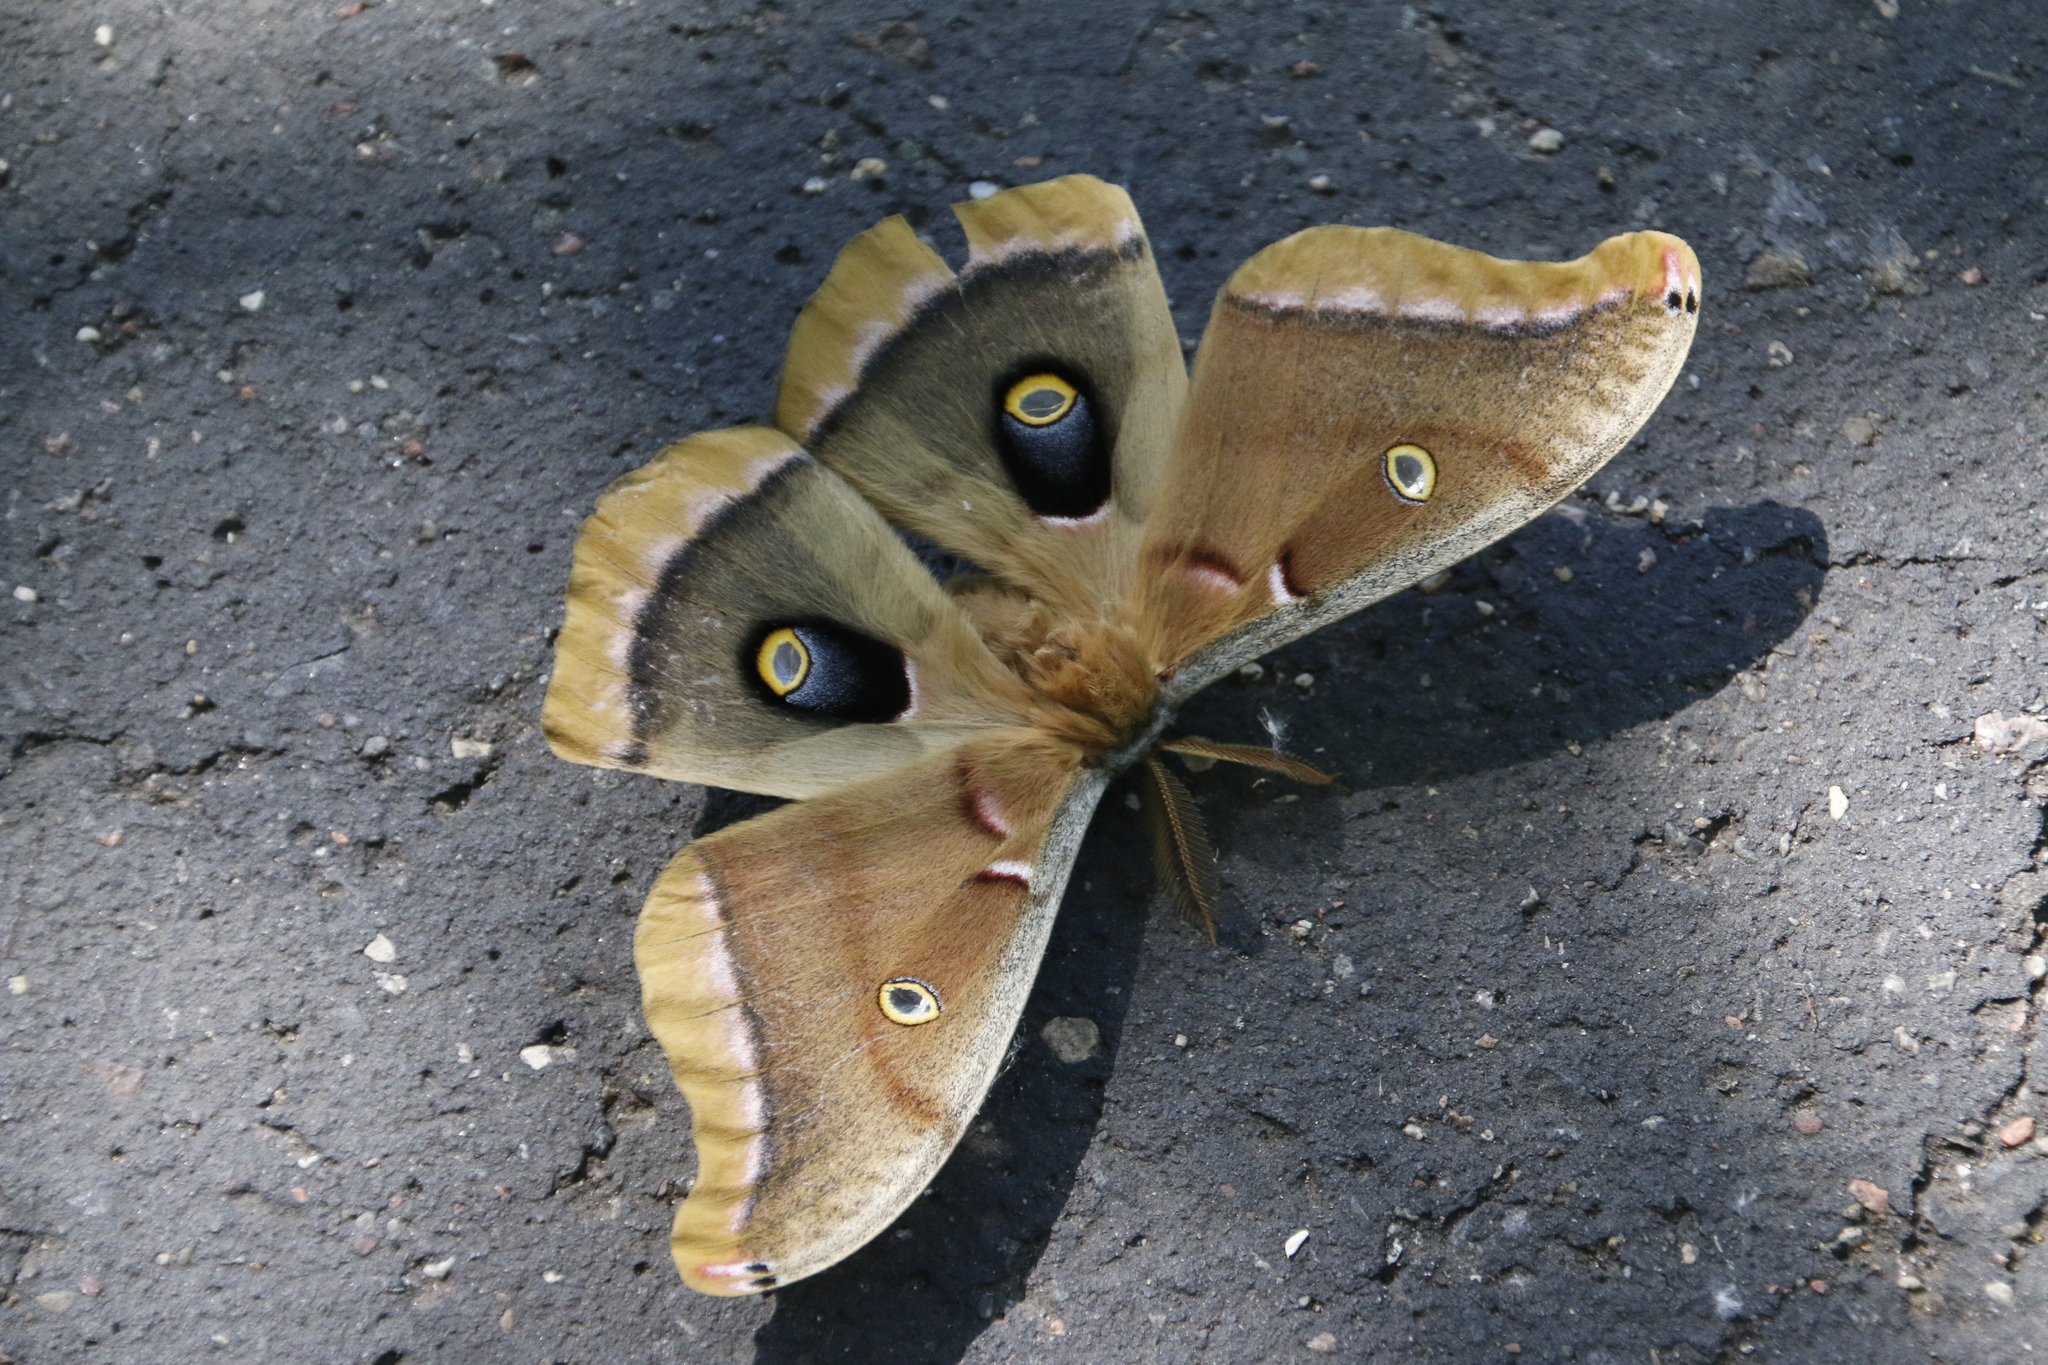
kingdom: Animalia
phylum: Arthropoda
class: Insecta
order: Lepidoptera
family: Saturniidae
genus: Antheraea
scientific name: Antheraea polyphemus
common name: Polyphemus moth
